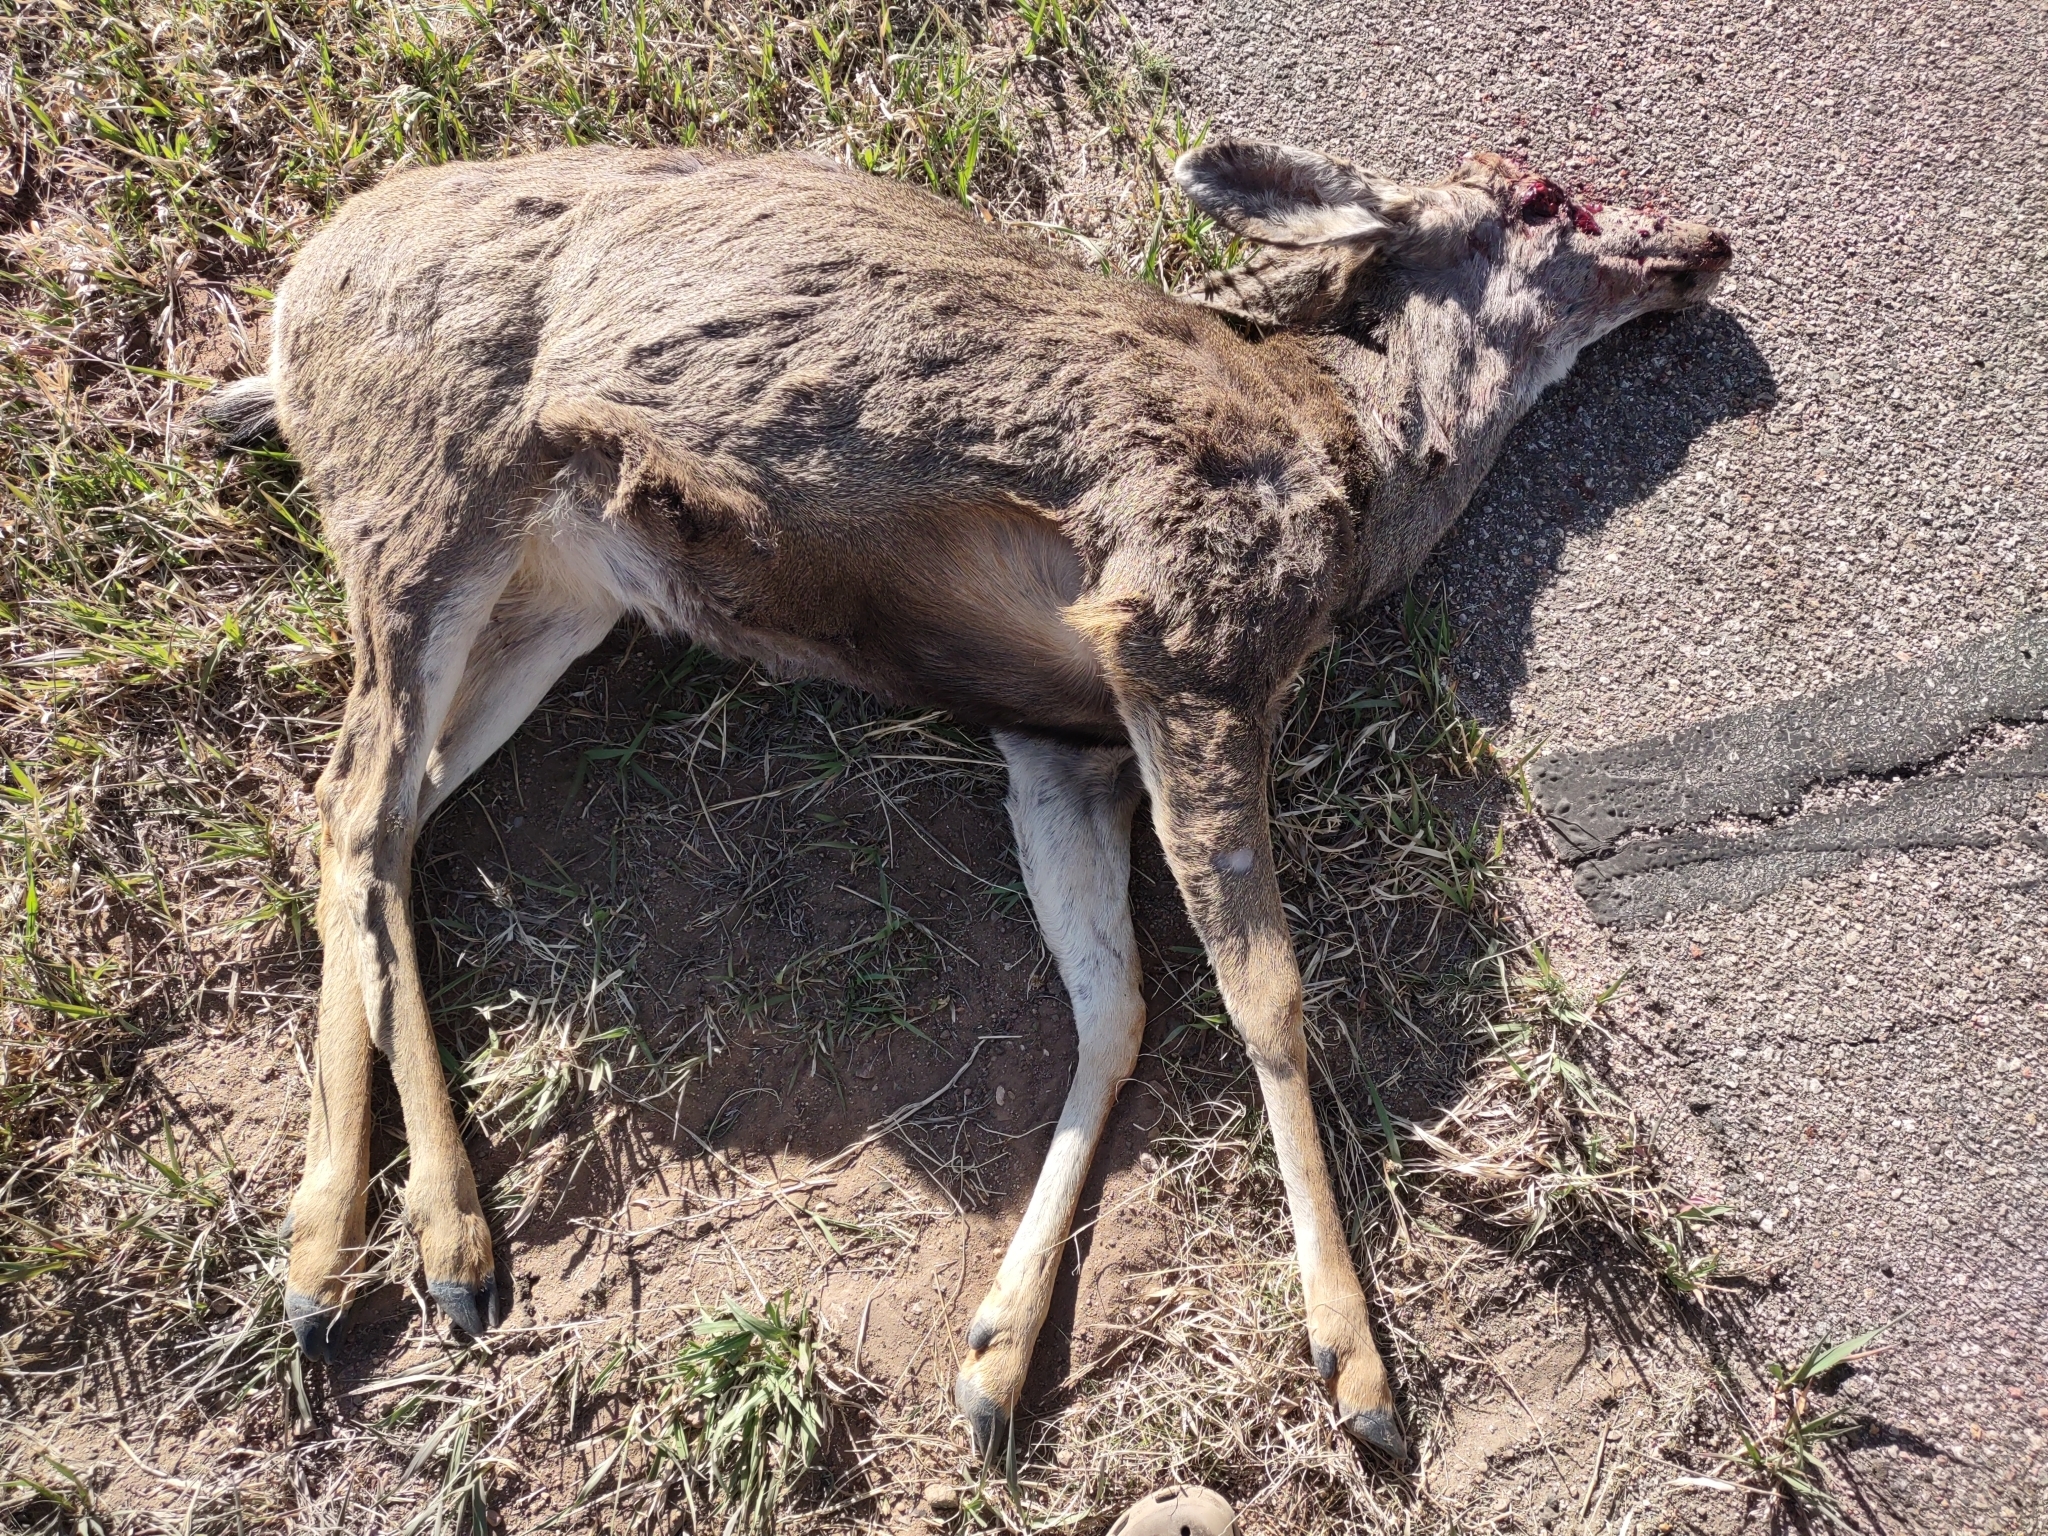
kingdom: Animalia
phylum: Chordata
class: Mammalia
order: Artiodactyla
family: Cervidae
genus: Odocoileus
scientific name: Odocoileus hemionus
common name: Mule deer
